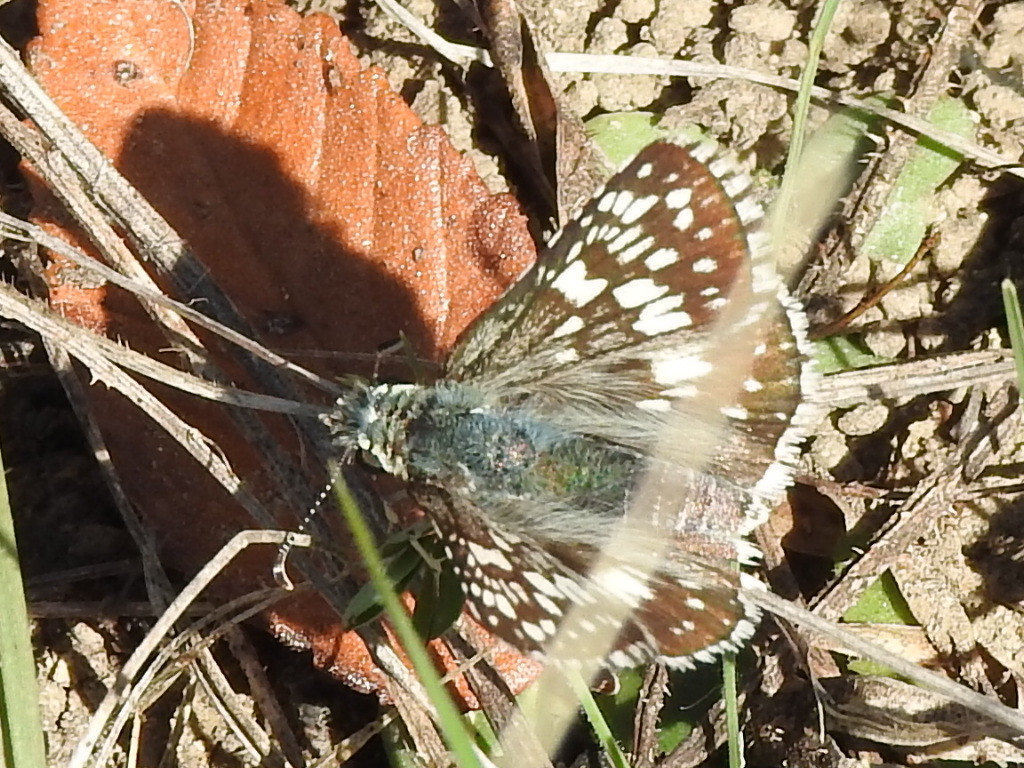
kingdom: Animalia
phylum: Arthropoda
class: Insecta
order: Lepidoptera
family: Hesperiidae
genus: Burnsius
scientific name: Burnsius
